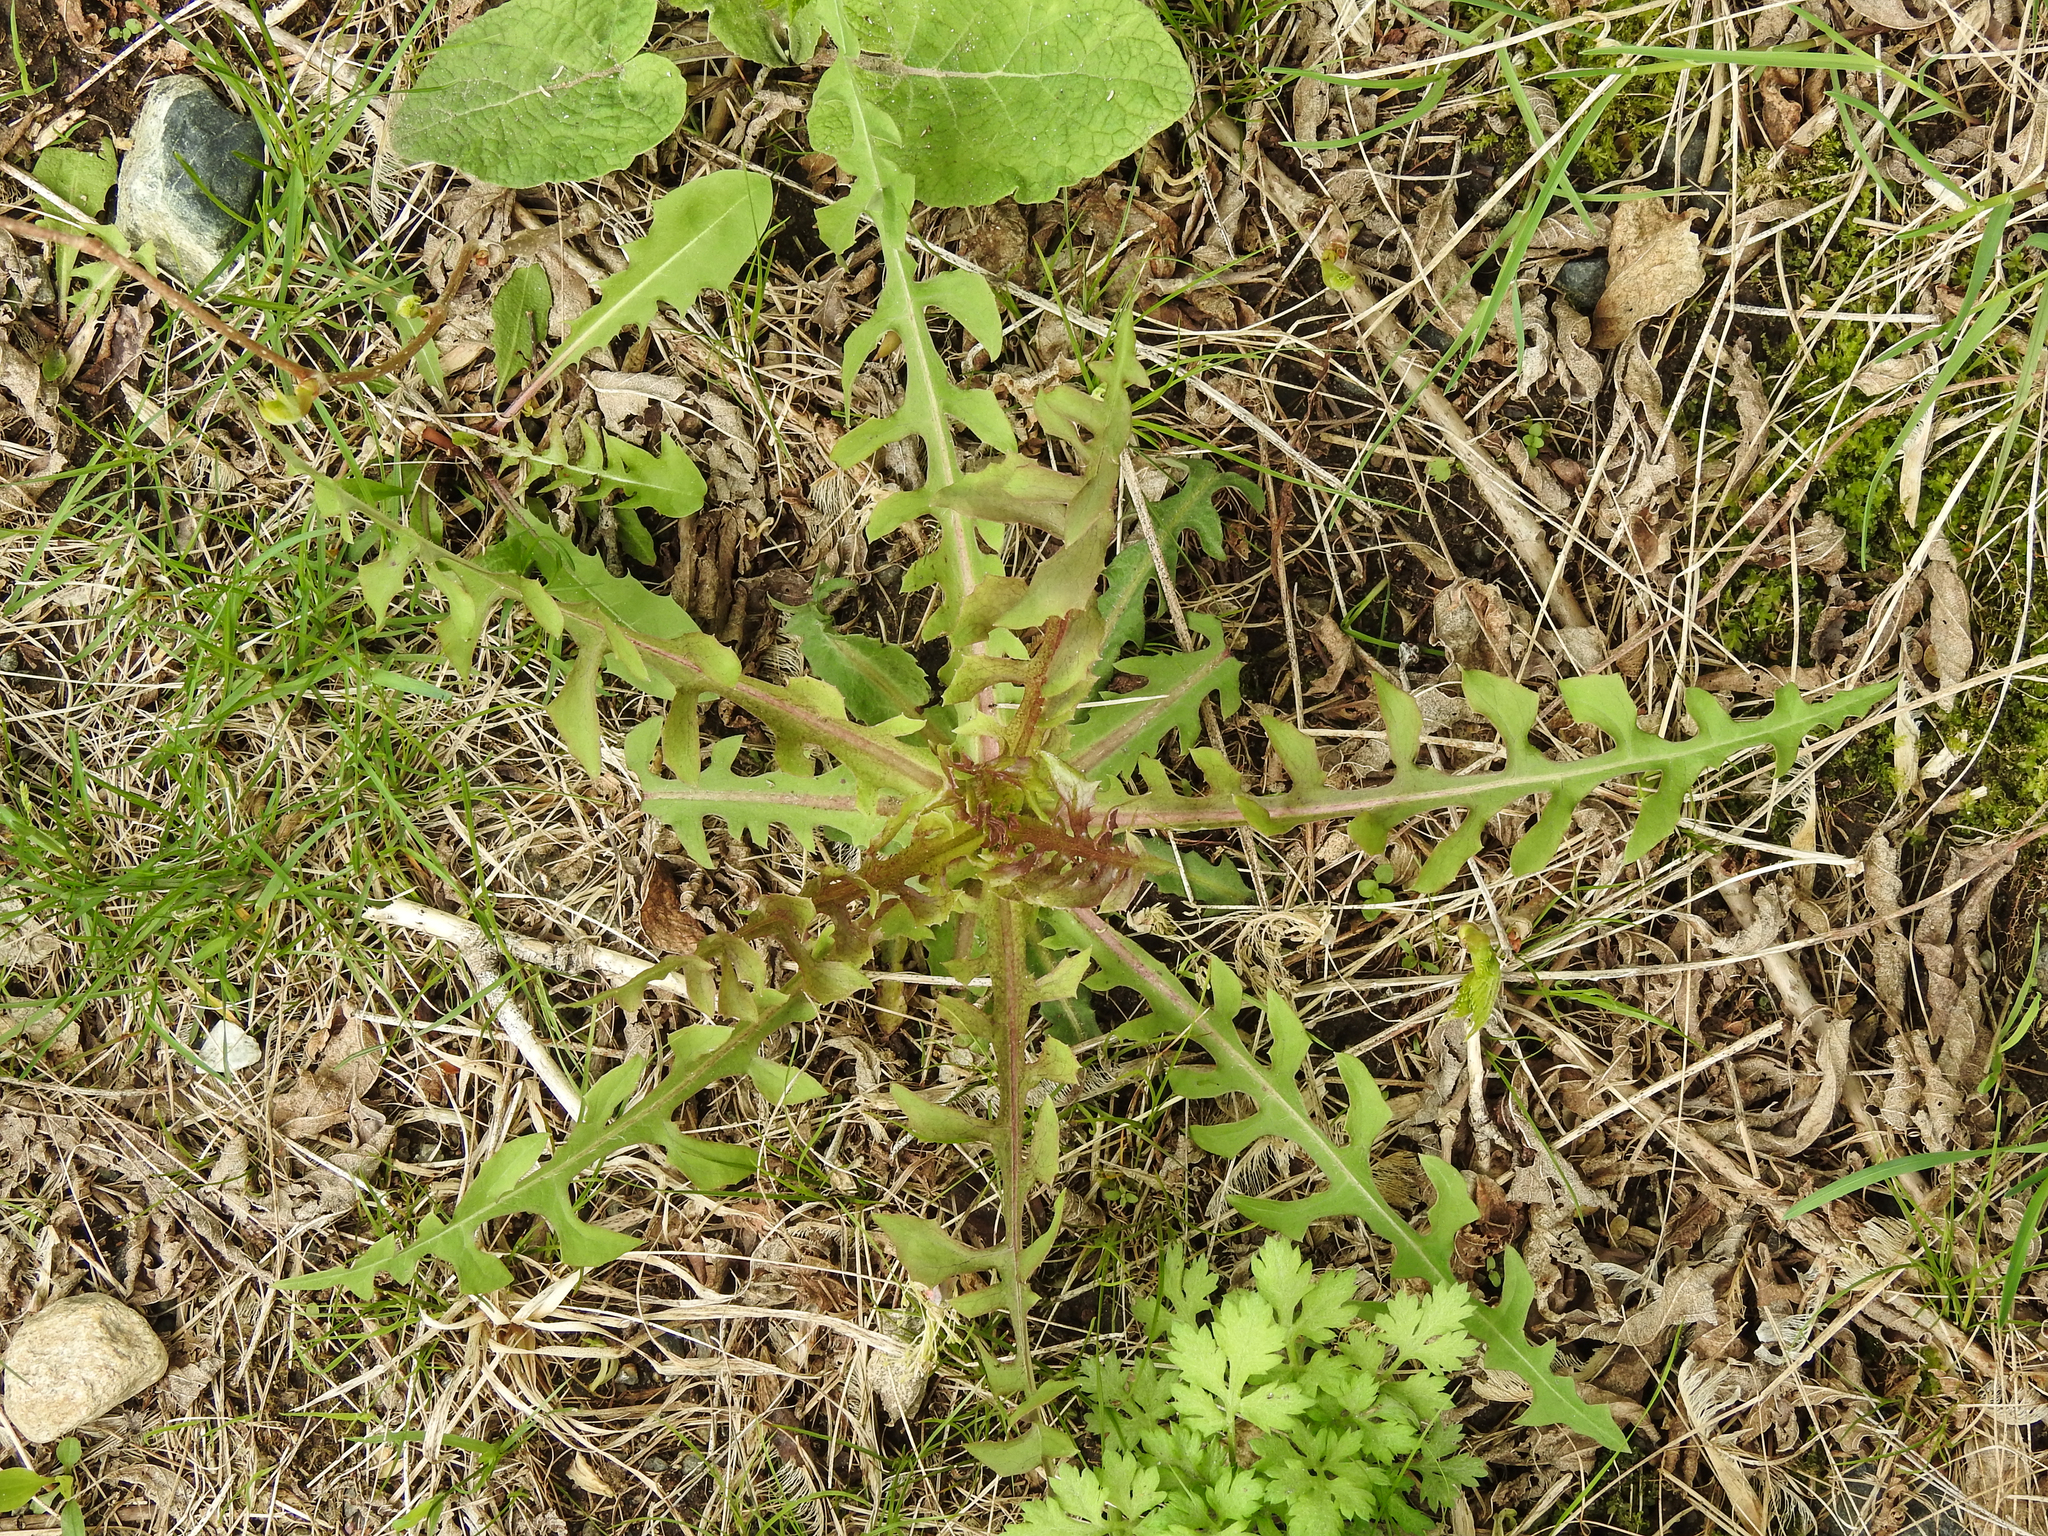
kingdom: Plantae
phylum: Tracheophyta
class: Magnoliopsida
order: Asterales
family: Asteraceae
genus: Lactuca
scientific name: Lactuca canadensis
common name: Canada lettuce
